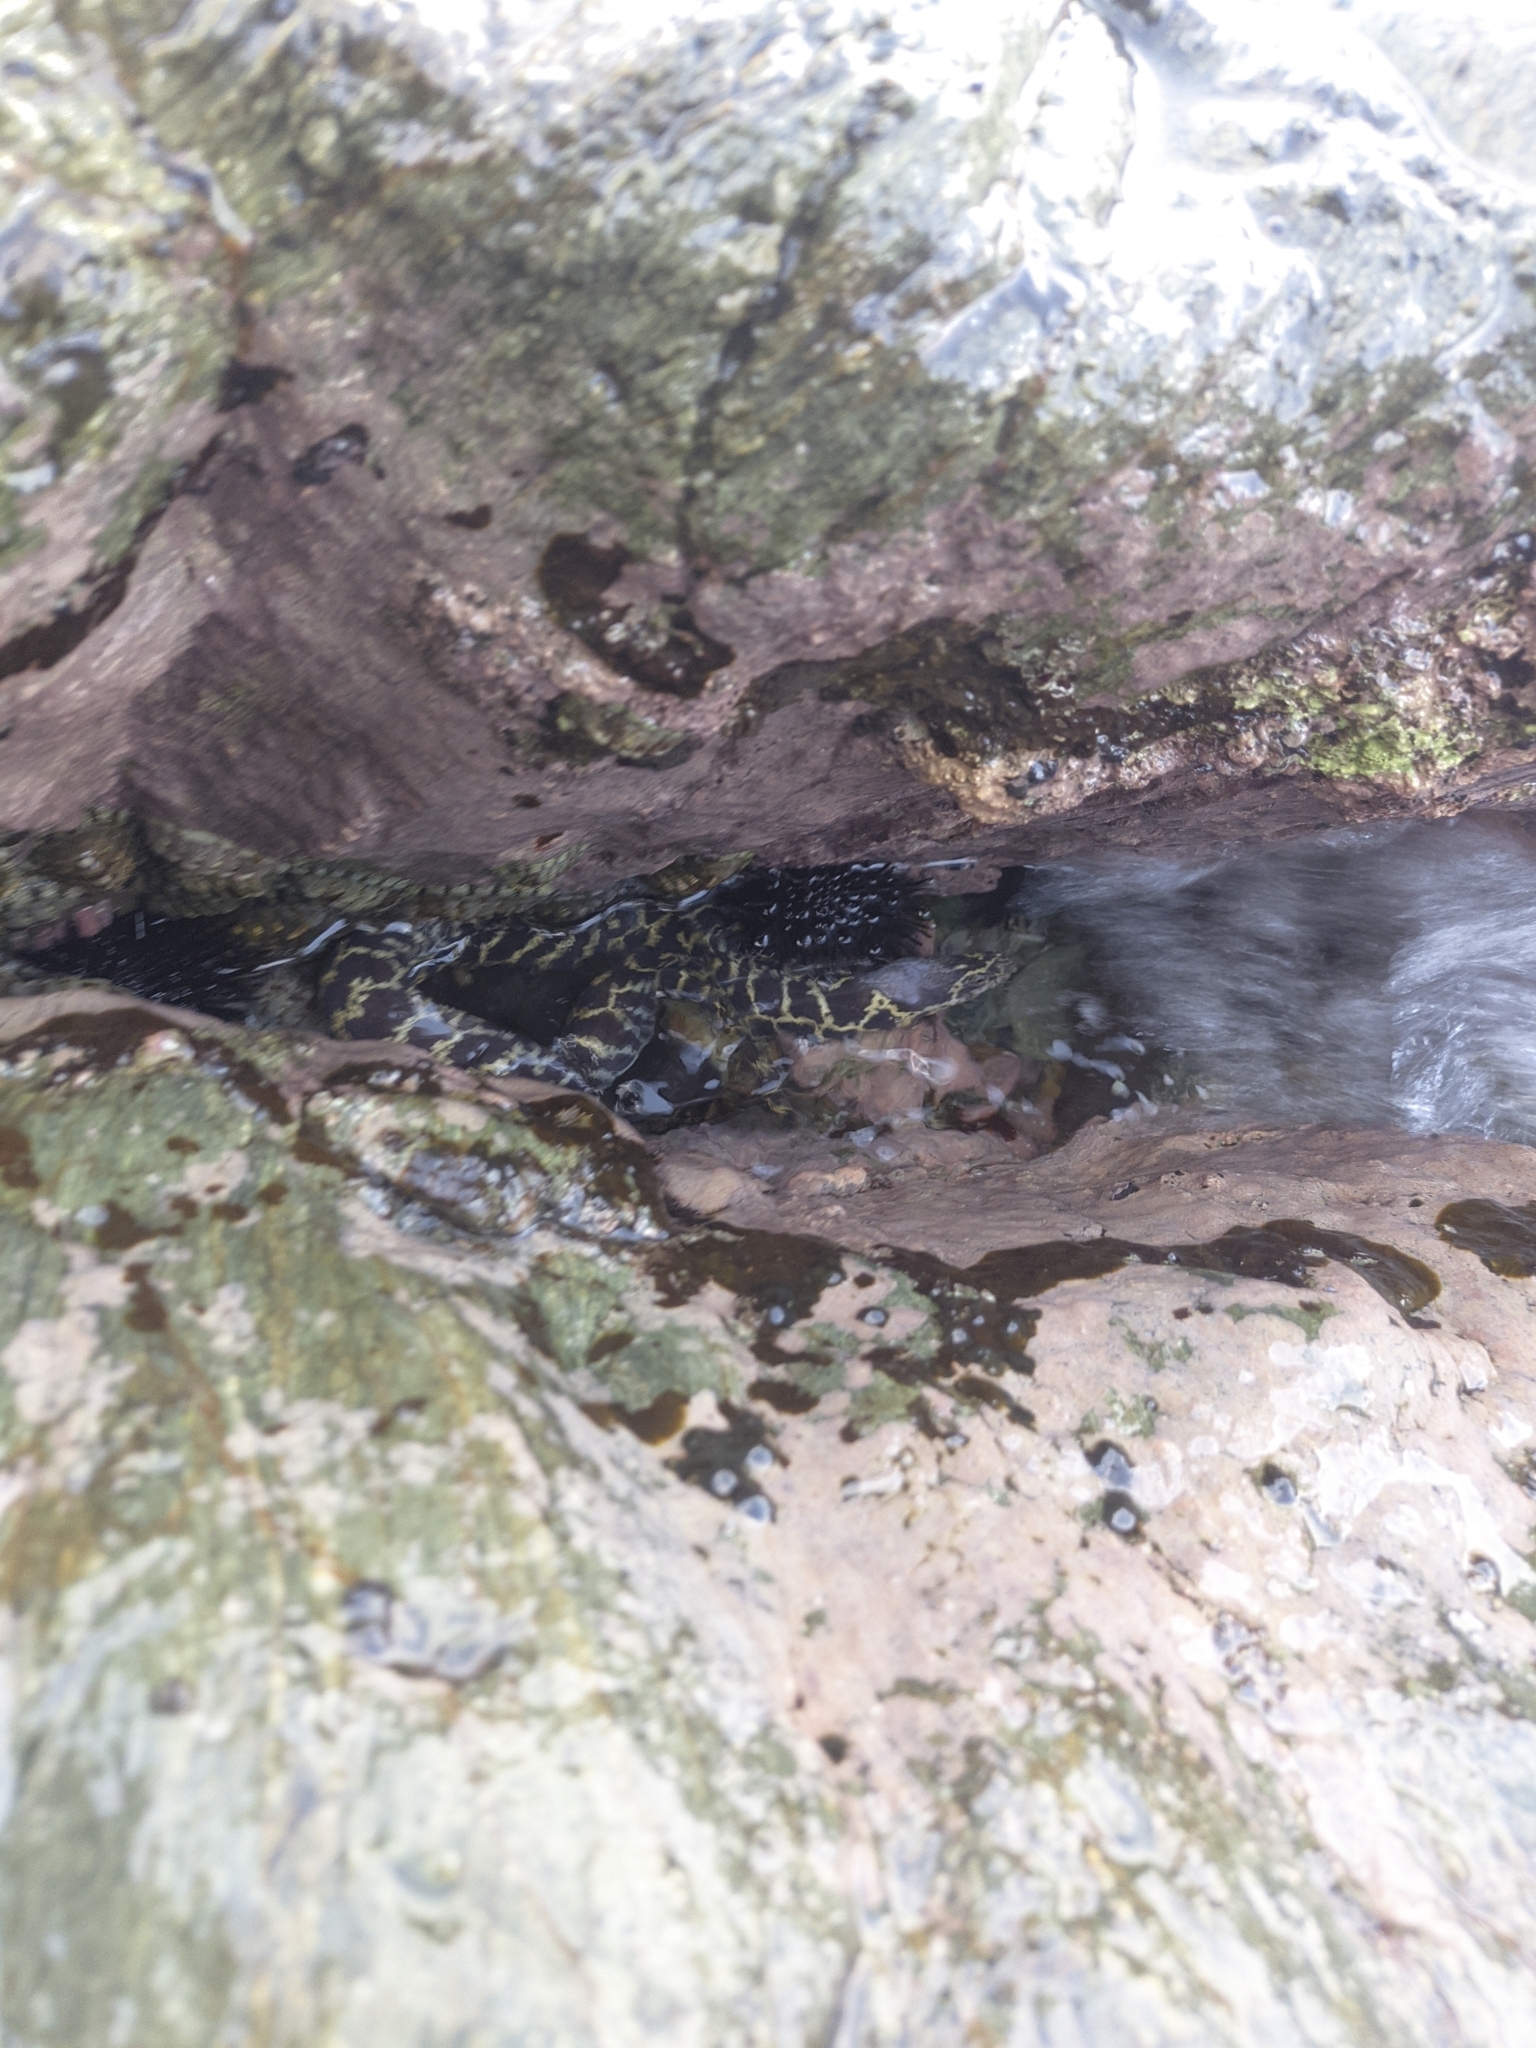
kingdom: Animalia
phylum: Chordata
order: Anguilliformes
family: Muraenidae
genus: Echidna
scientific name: Echidna catenata
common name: Chain moray
